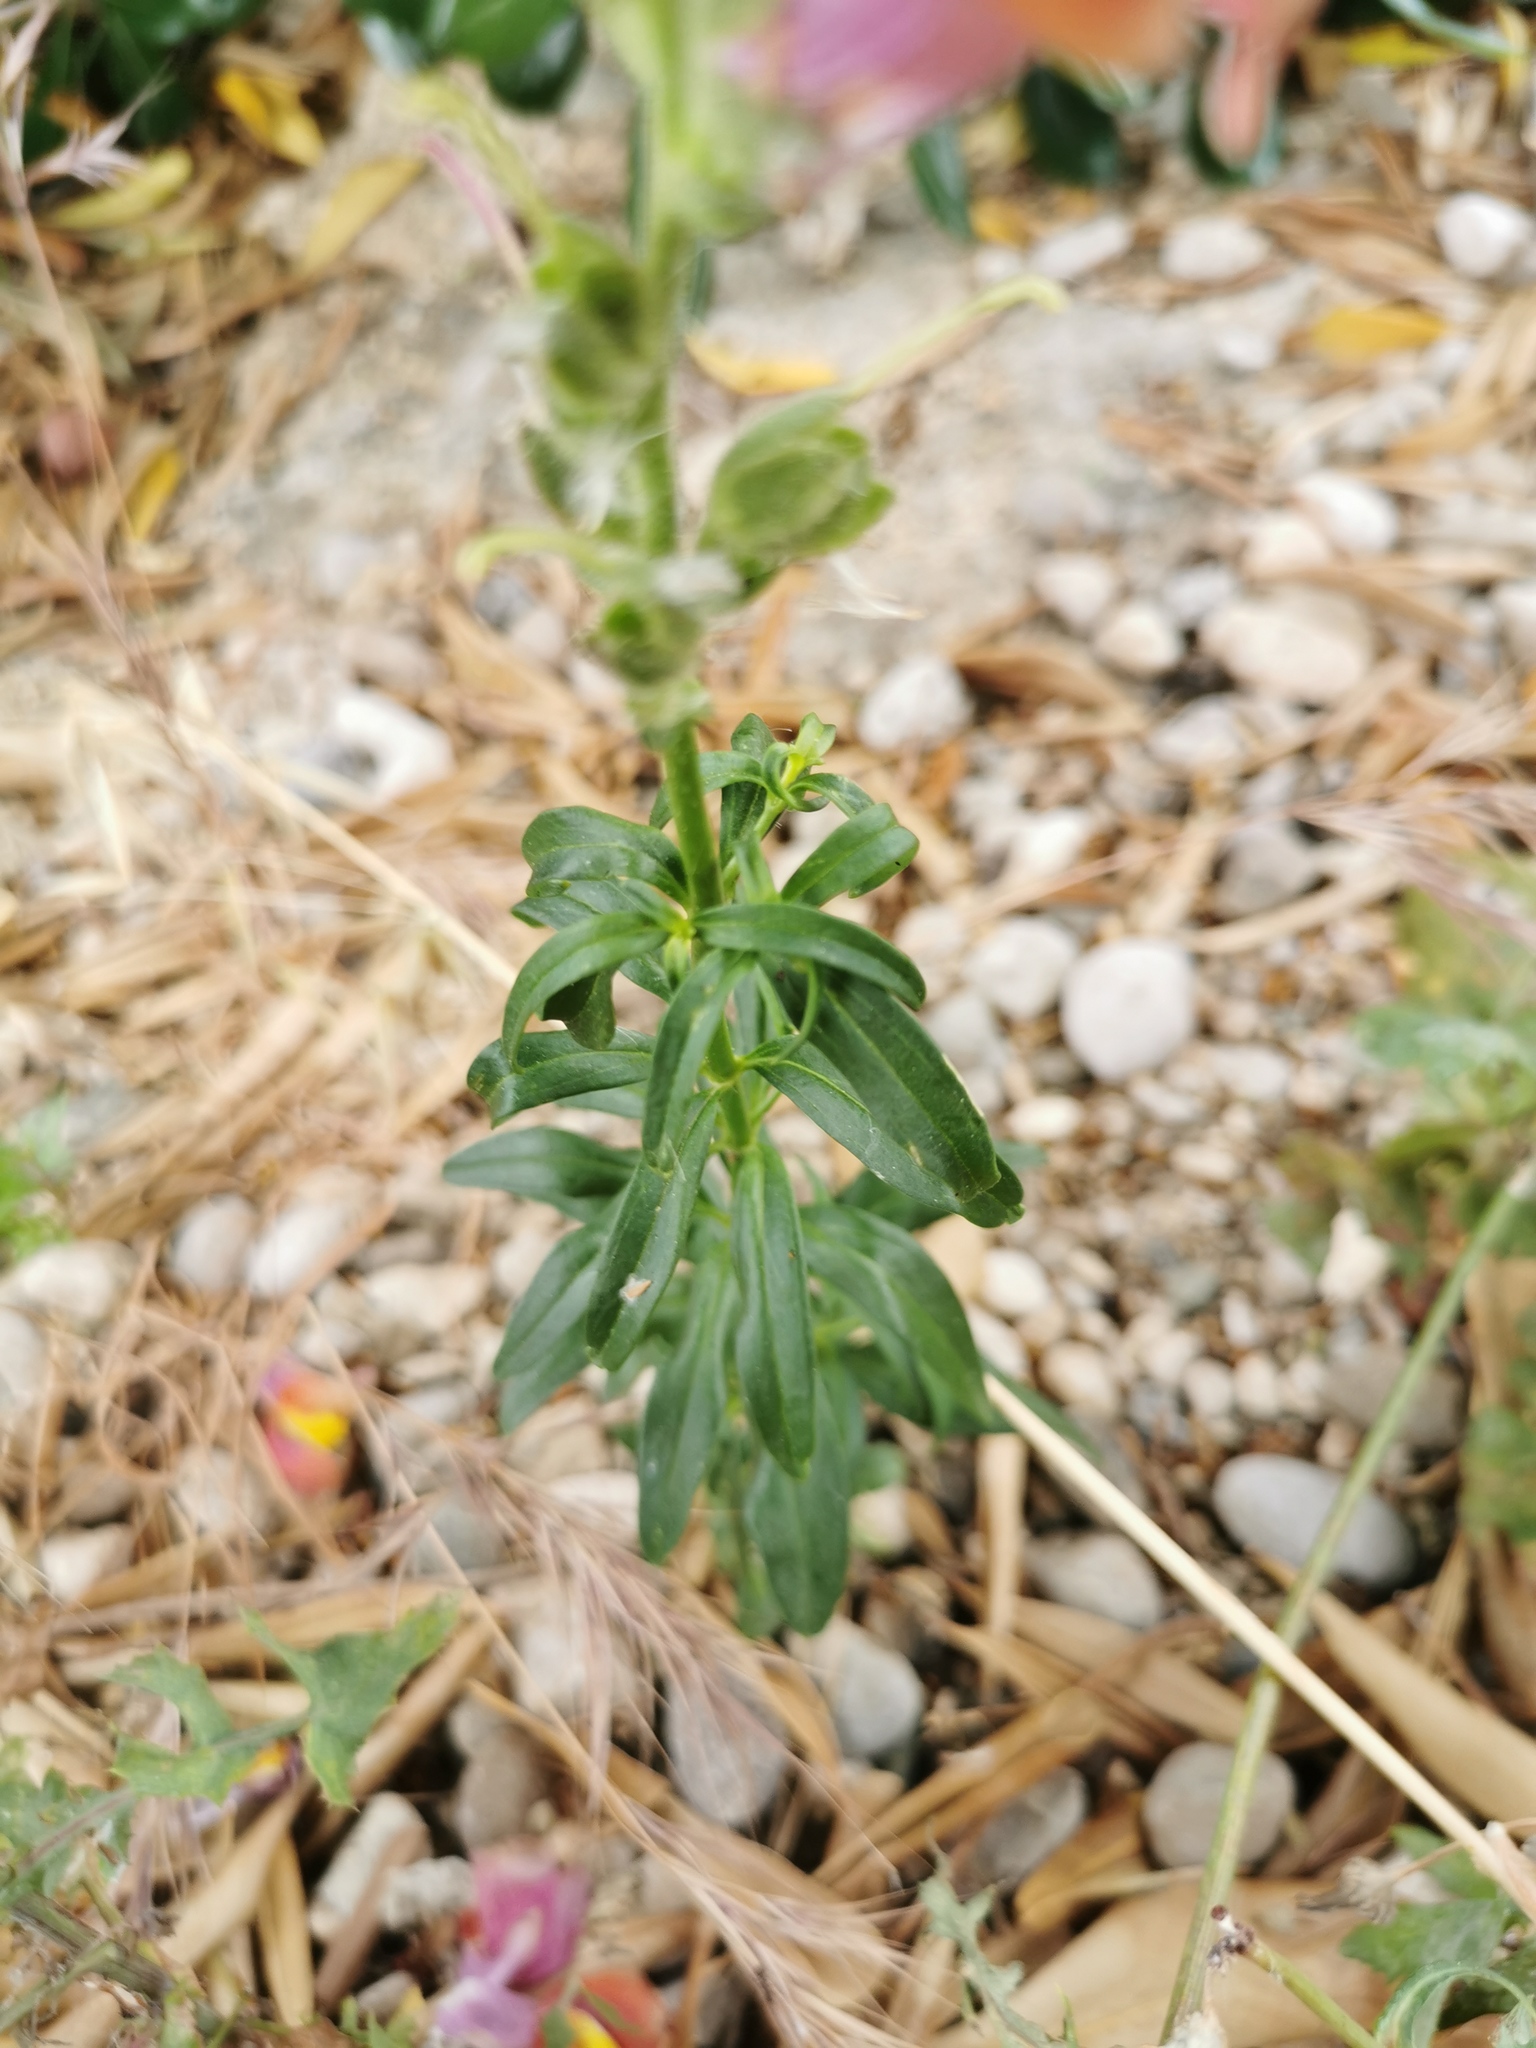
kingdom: Plantae
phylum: Tracheophyta
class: Magnoliopsida
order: Lamiales
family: Plantaginaceae
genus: Antirrhinum
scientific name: Antirrhinum majus
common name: Snapdragon
